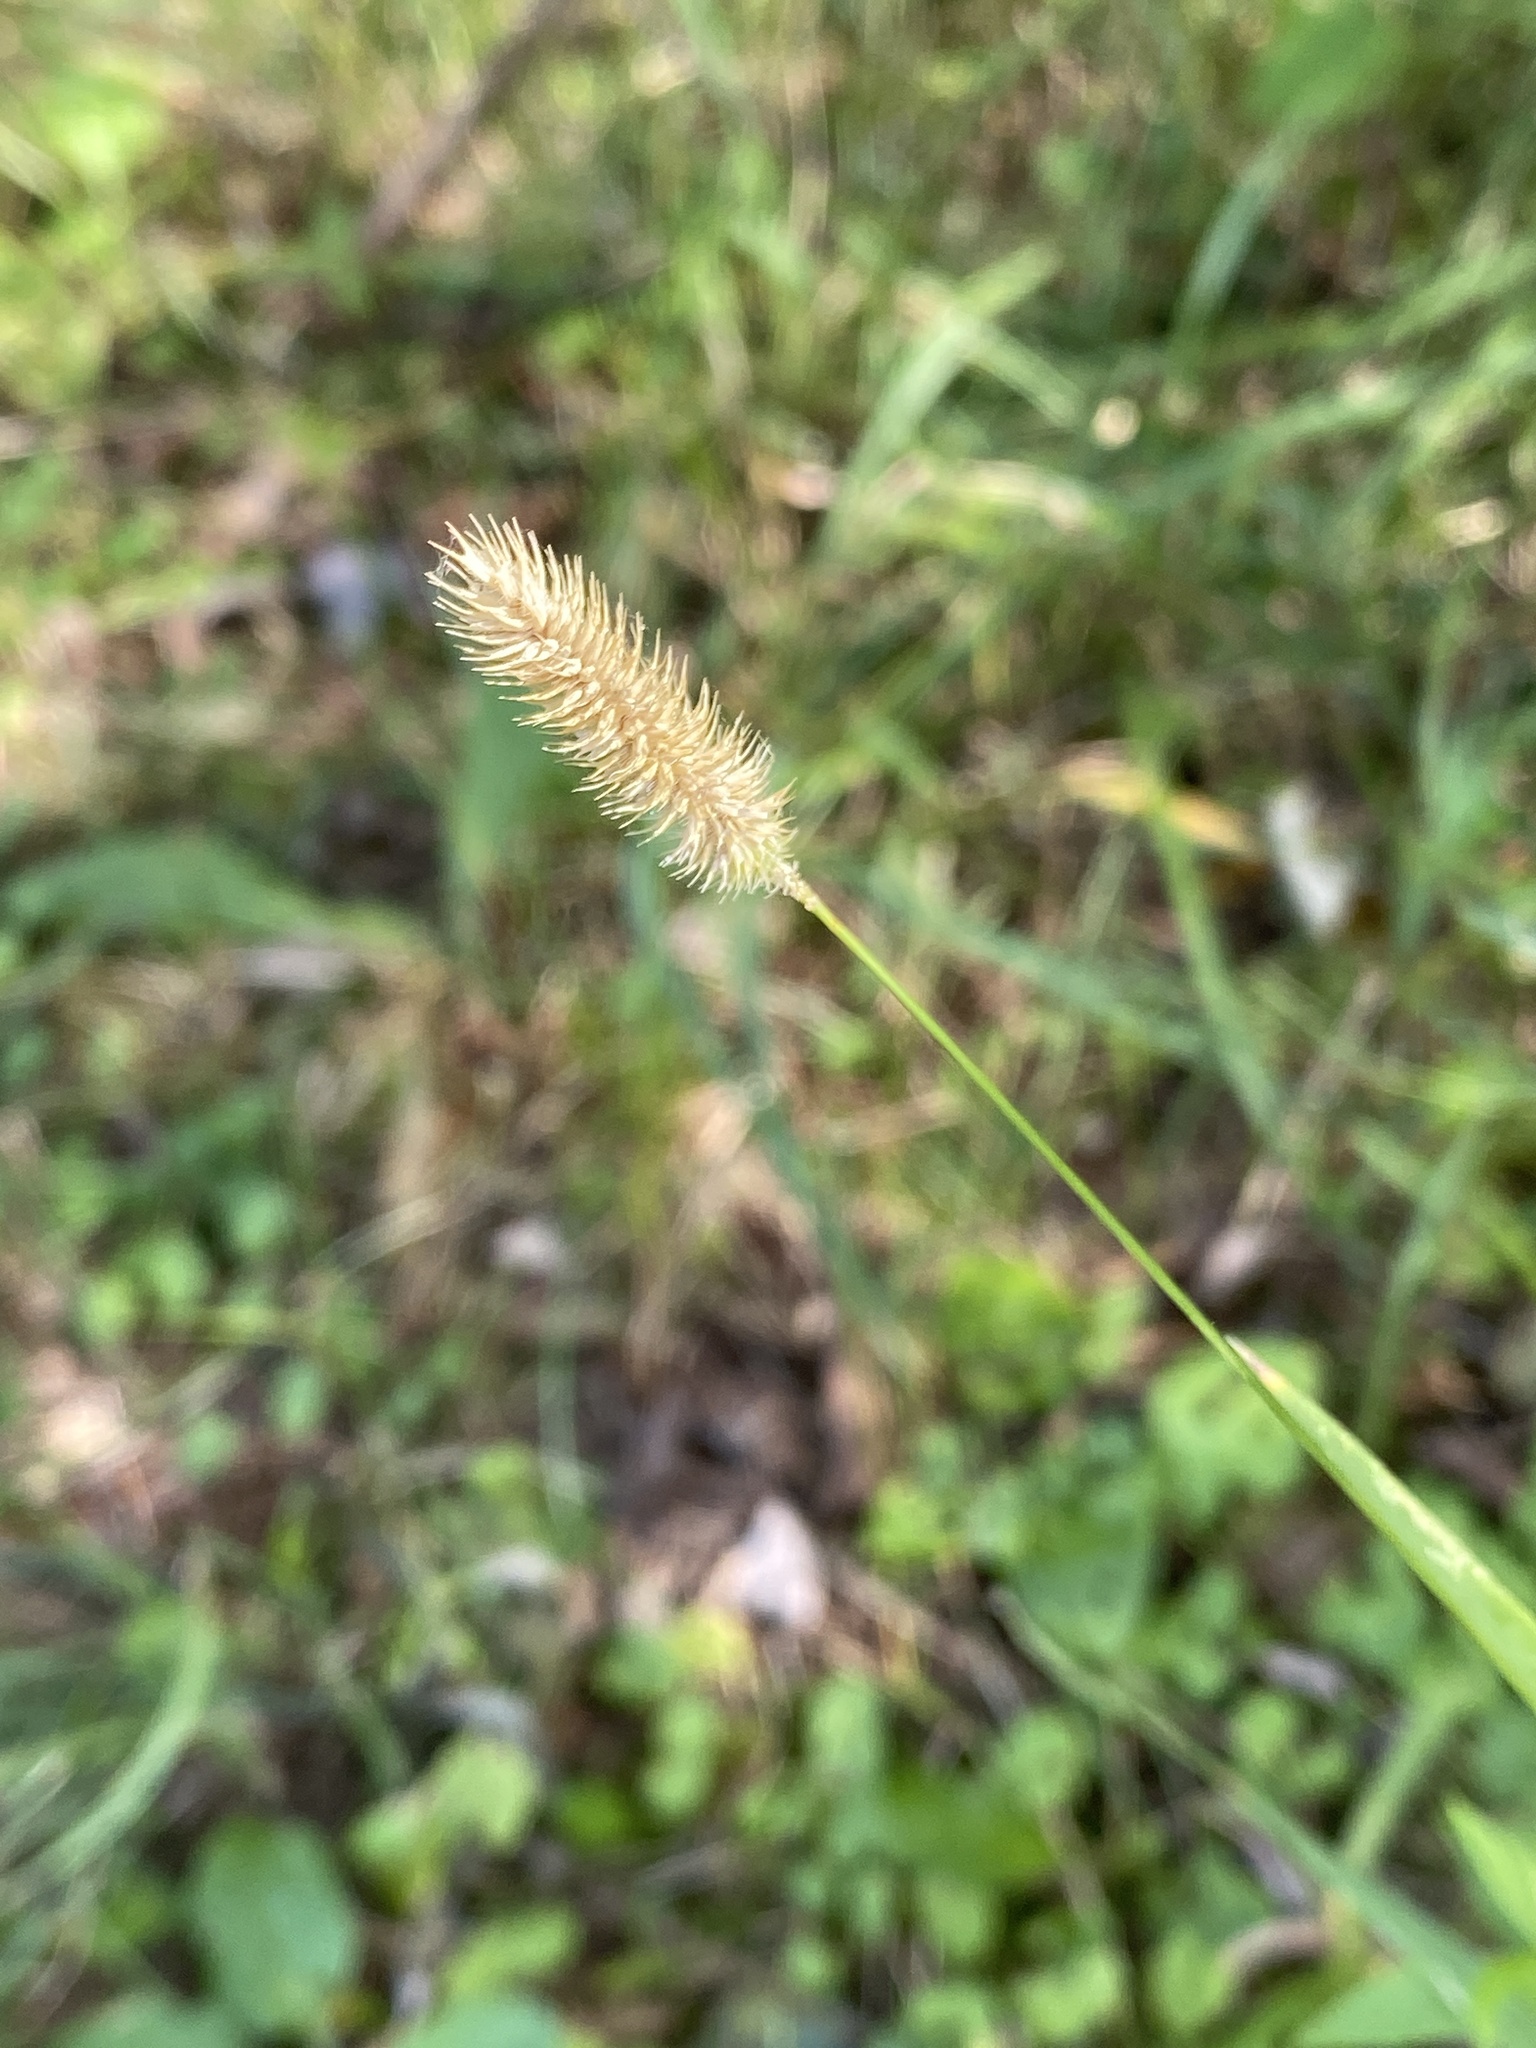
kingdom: Plantae
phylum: Tracheophyta
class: Liliopsida
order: Poales
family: Poaceae
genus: Phleum
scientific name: Phleum pratense
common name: Timothy grass
